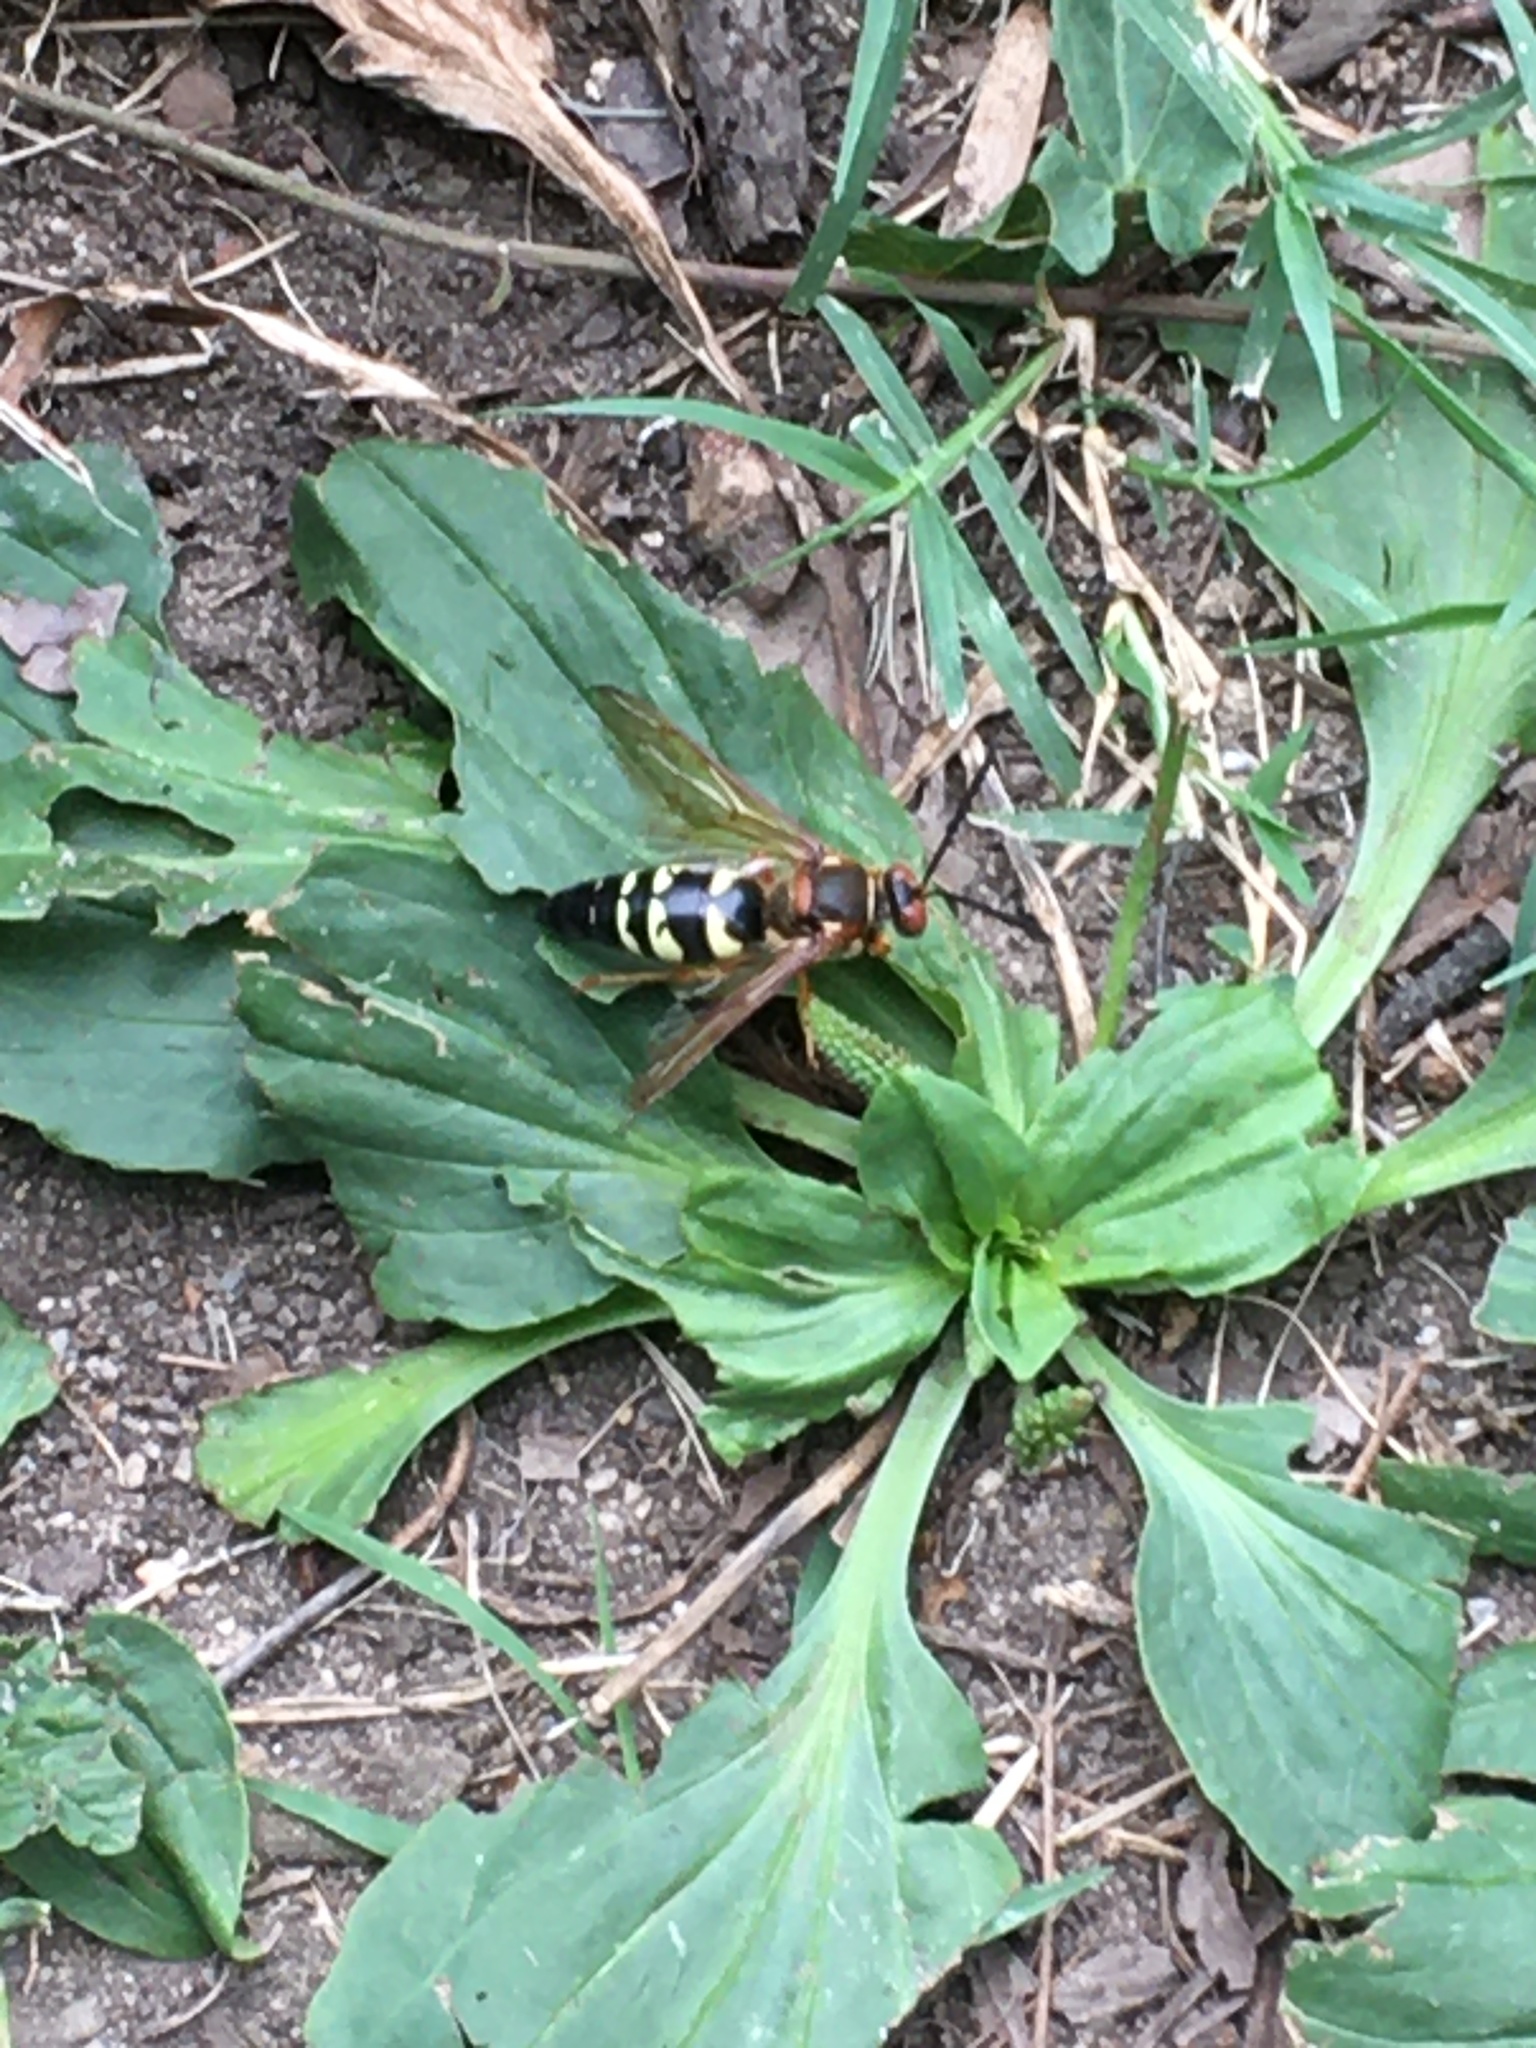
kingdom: Animalia
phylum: Arthropoda
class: Insecta
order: Hymenoptera
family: Crabronidae
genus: Sphecius
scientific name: Sphecius speciosus
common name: Cicada killer
